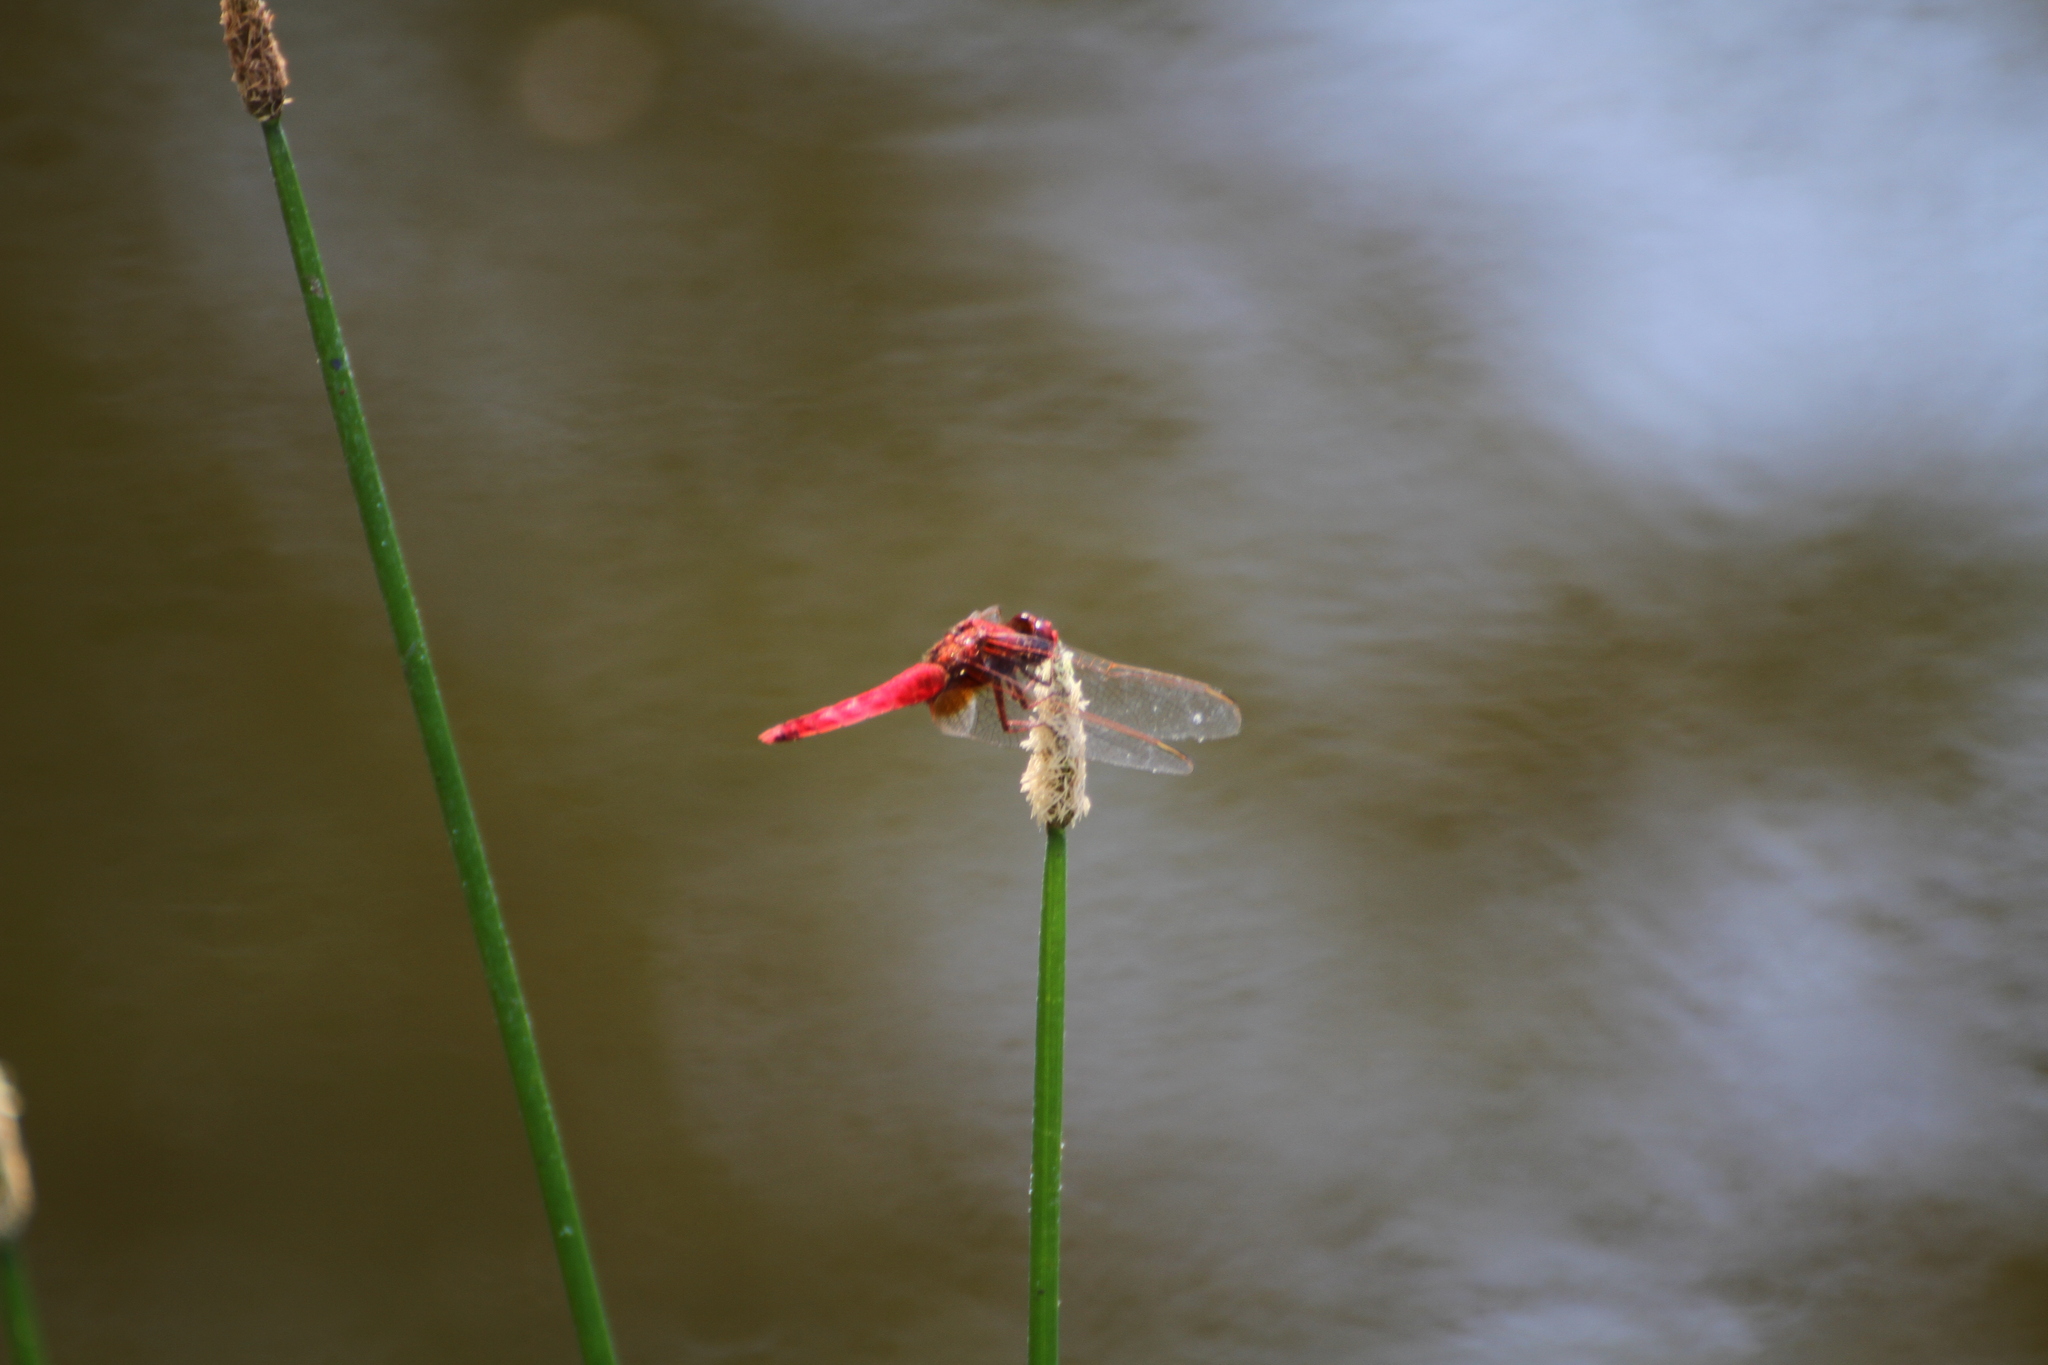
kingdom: Animalia
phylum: Arthropoda
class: Insecta
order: Odonata
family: Libellulidae
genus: Crocothemis
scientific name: Crocothemis erythraea
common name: Scarlet dragonfly
